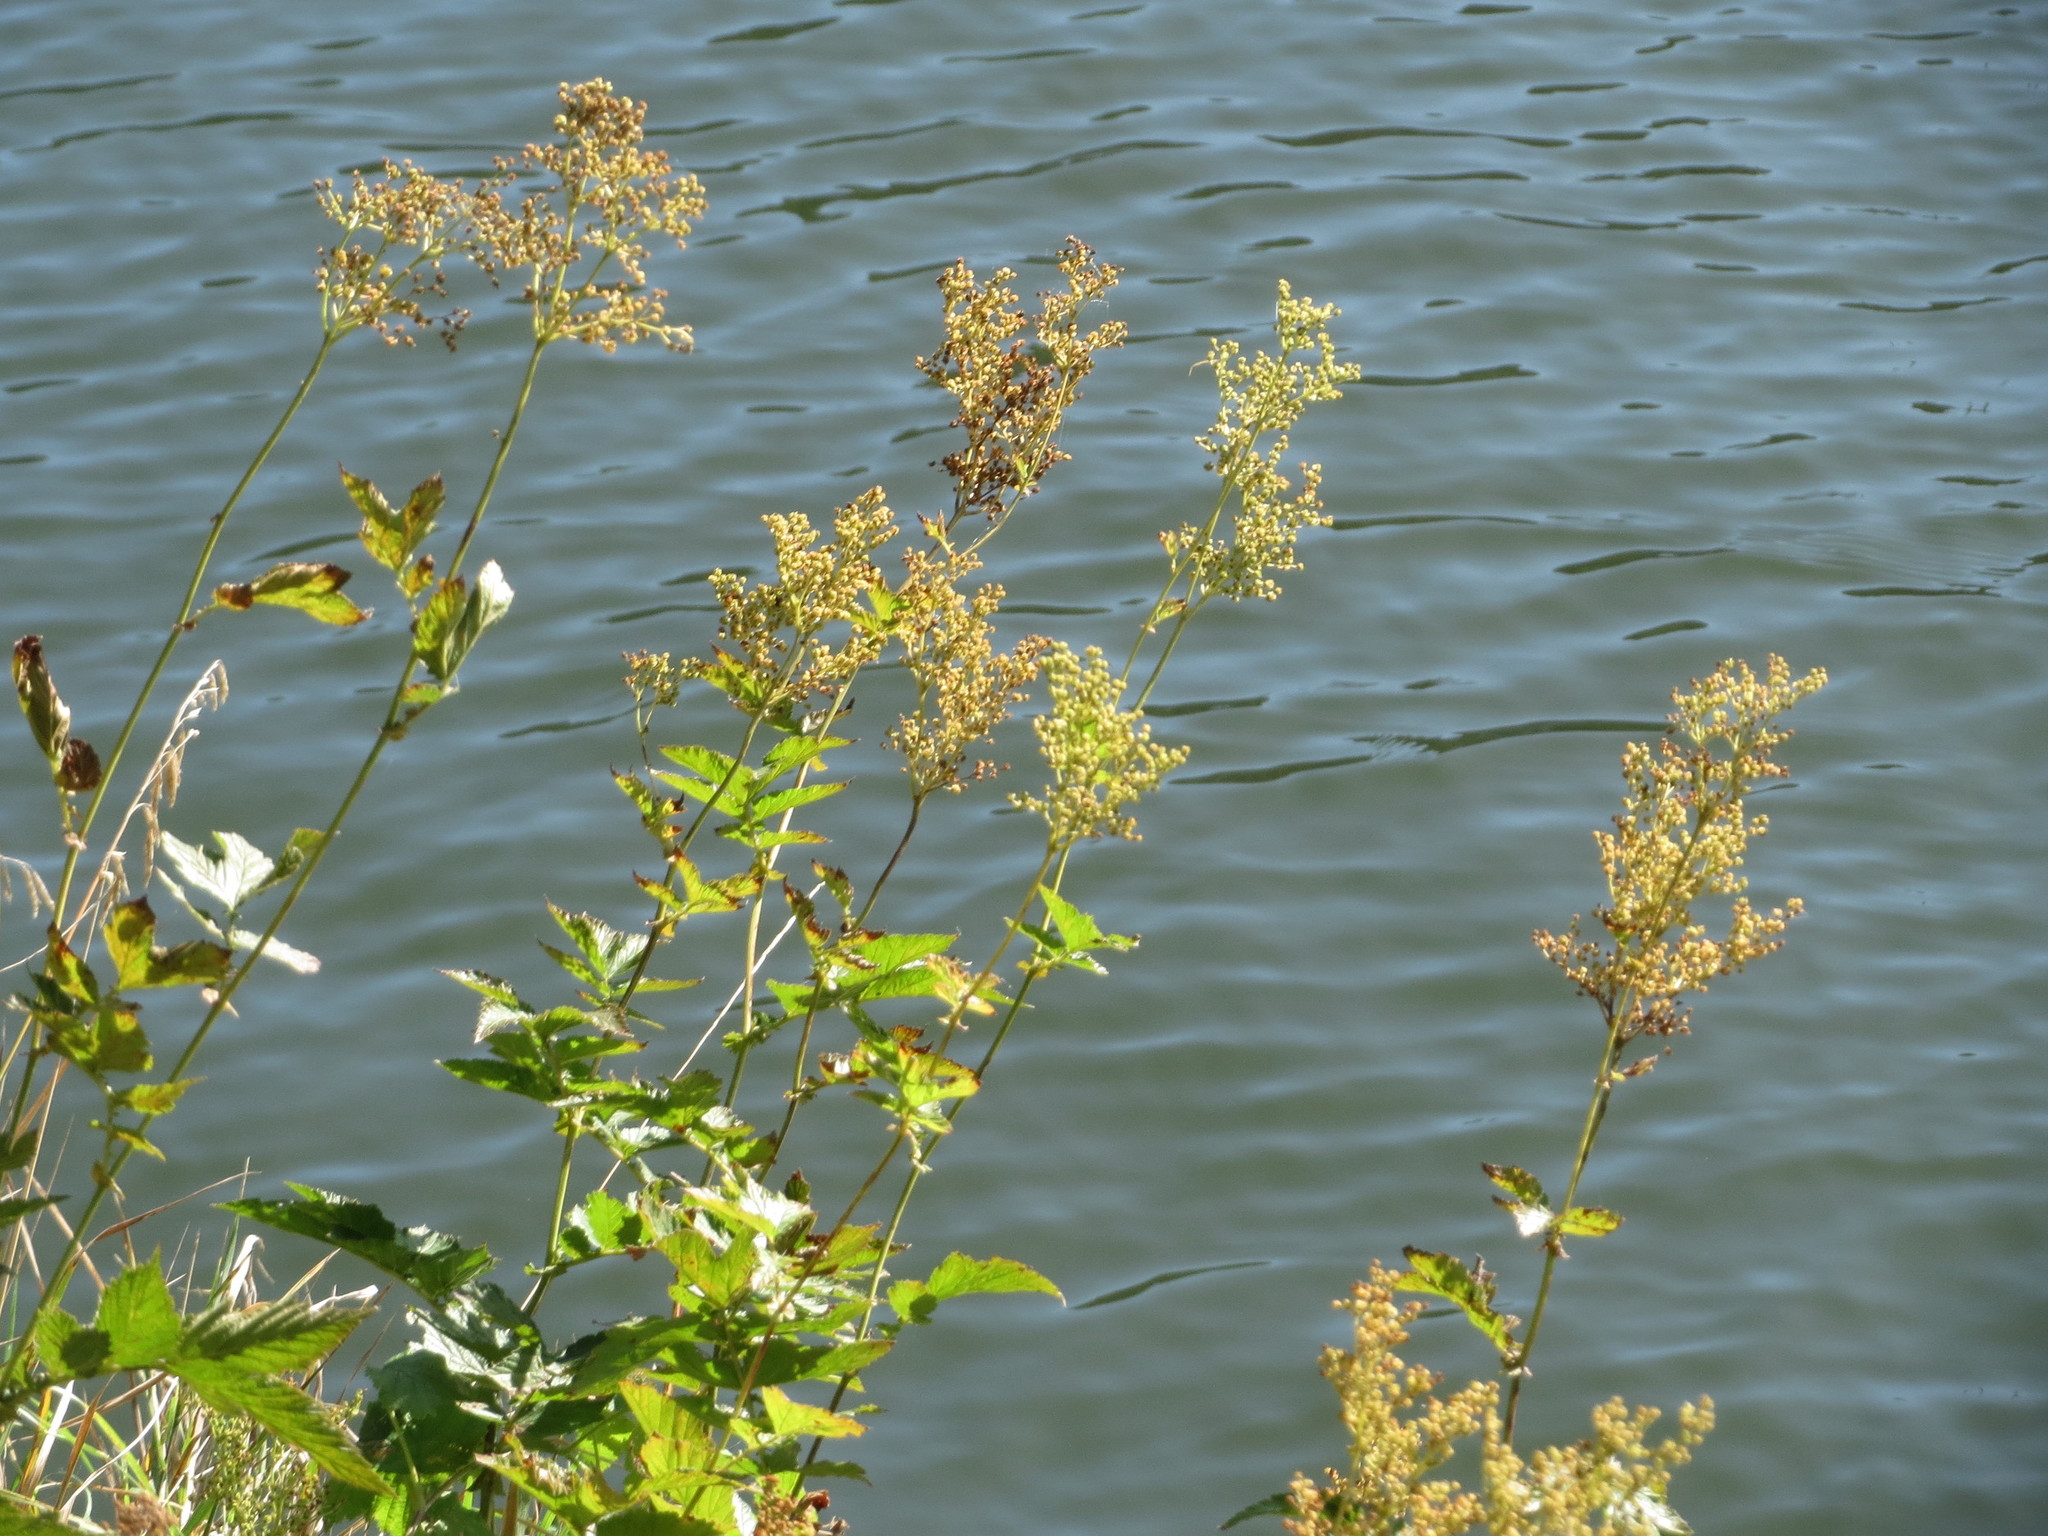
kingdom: Plantae
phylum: Tracheophyta
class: Magnoliopsida
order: Rosales
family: Rosaceae
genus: Filipendula
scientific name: Filipendula ulmaria
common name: Meadowsweet
